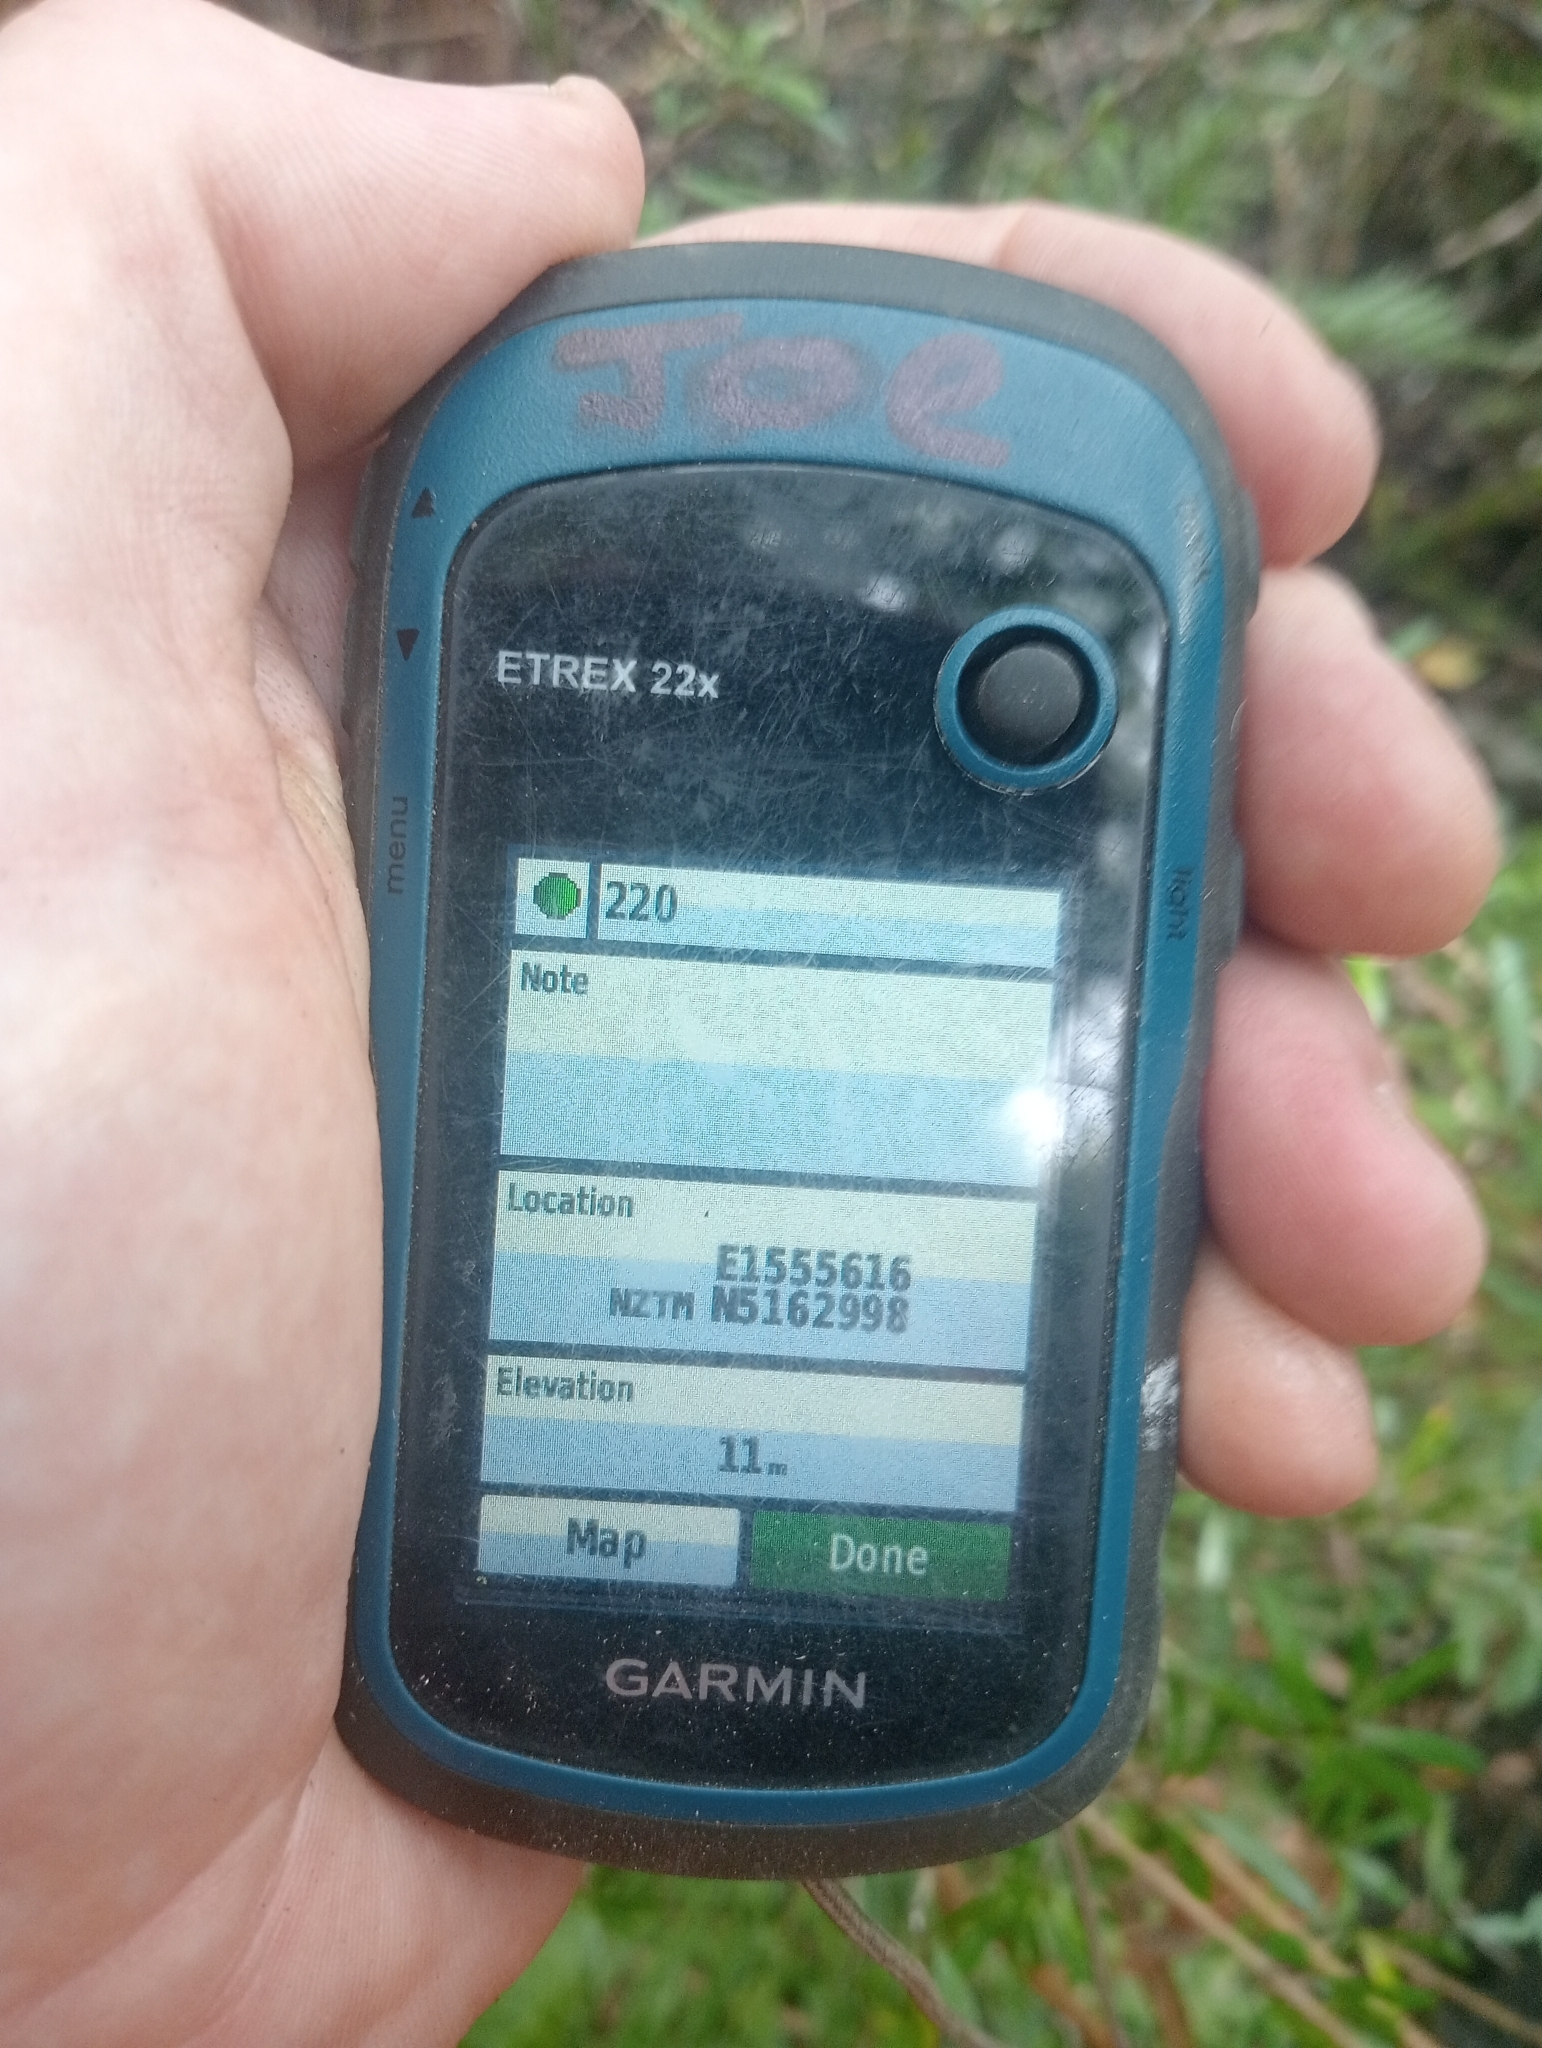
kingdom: Plantae
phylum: Tracheophyta
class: Magnoliopsida
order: Myrtales
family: Myrtaceae
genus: Leptospermum
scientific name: Leptospermum scoparium
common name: Broom tea-tree
